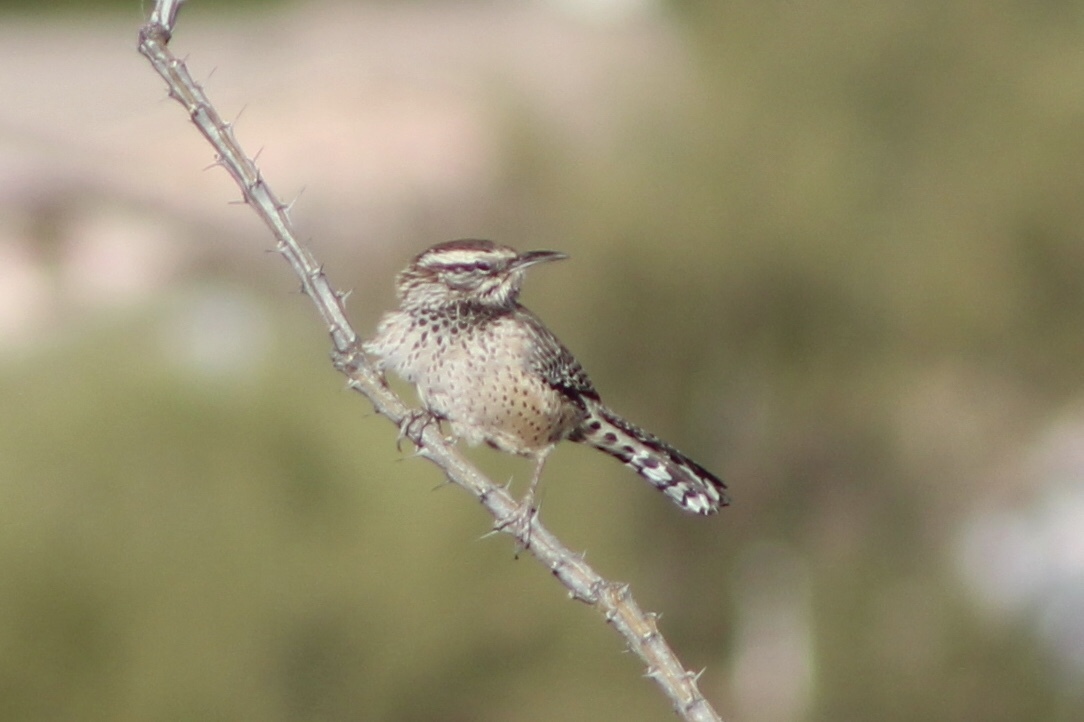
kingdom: Animalia
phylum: Chordata
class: Aves
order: Passeriformes
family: Troglodytidae
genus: Campylorhynchus
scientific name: Campylorhynchus brunneicapillus
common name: Cactus wren
